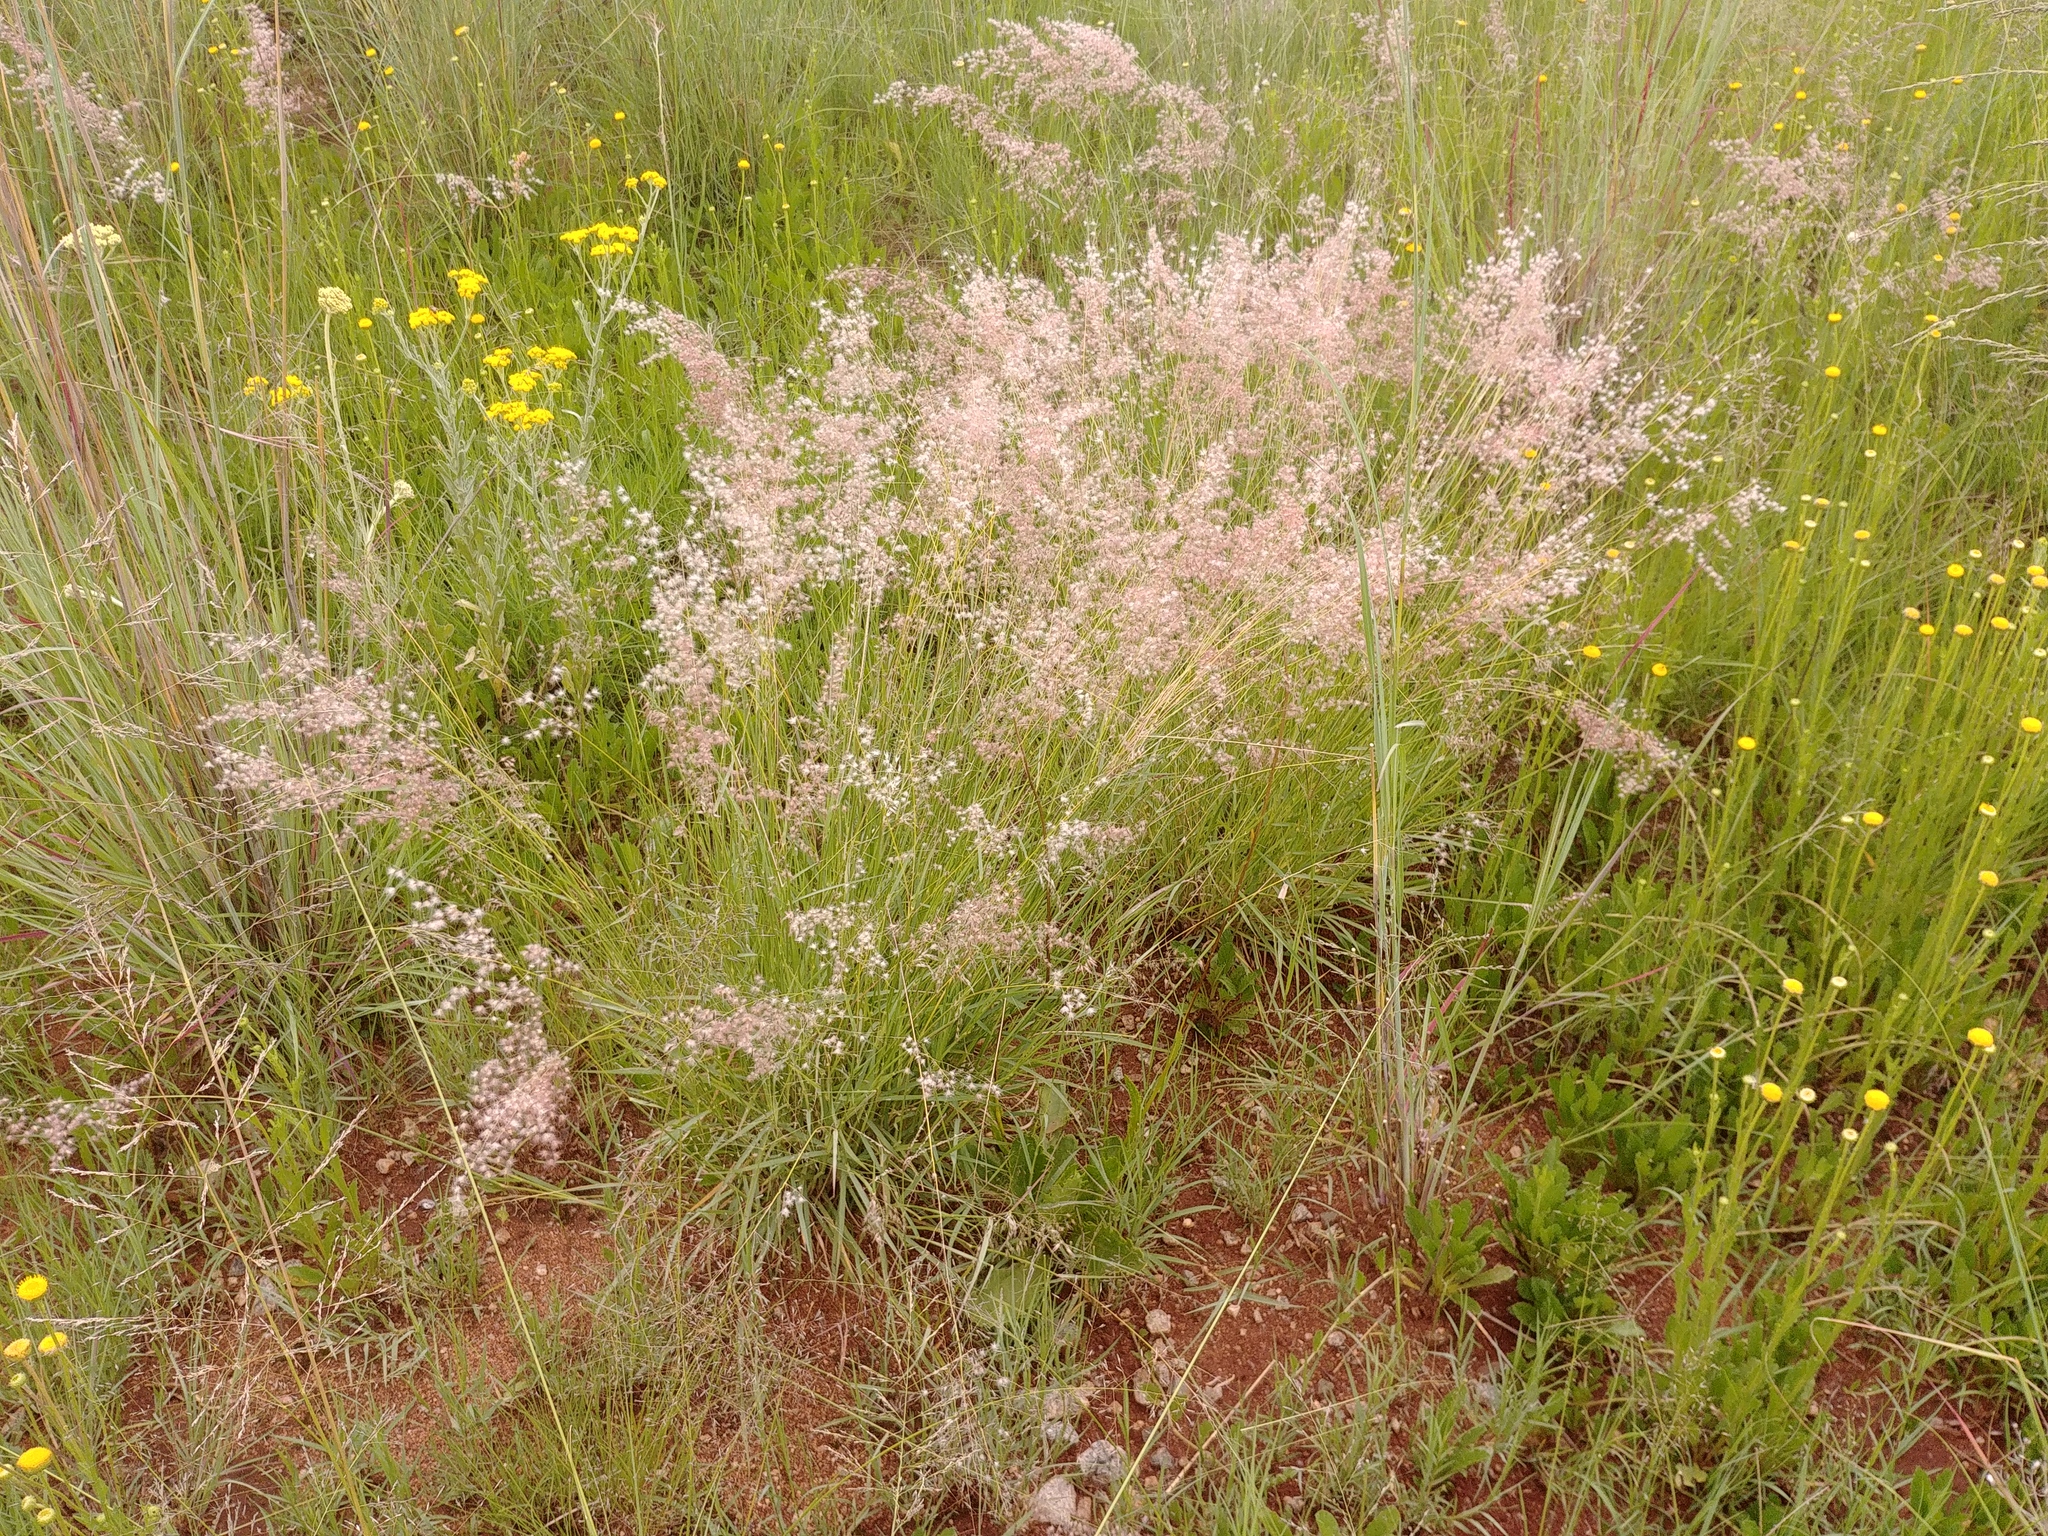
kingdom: Plantae
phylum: Tracheophyta
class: Liliopsida
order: Poales
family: Poaceae
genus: Melinis
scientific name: Melinis repens
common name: Rose natal grass
